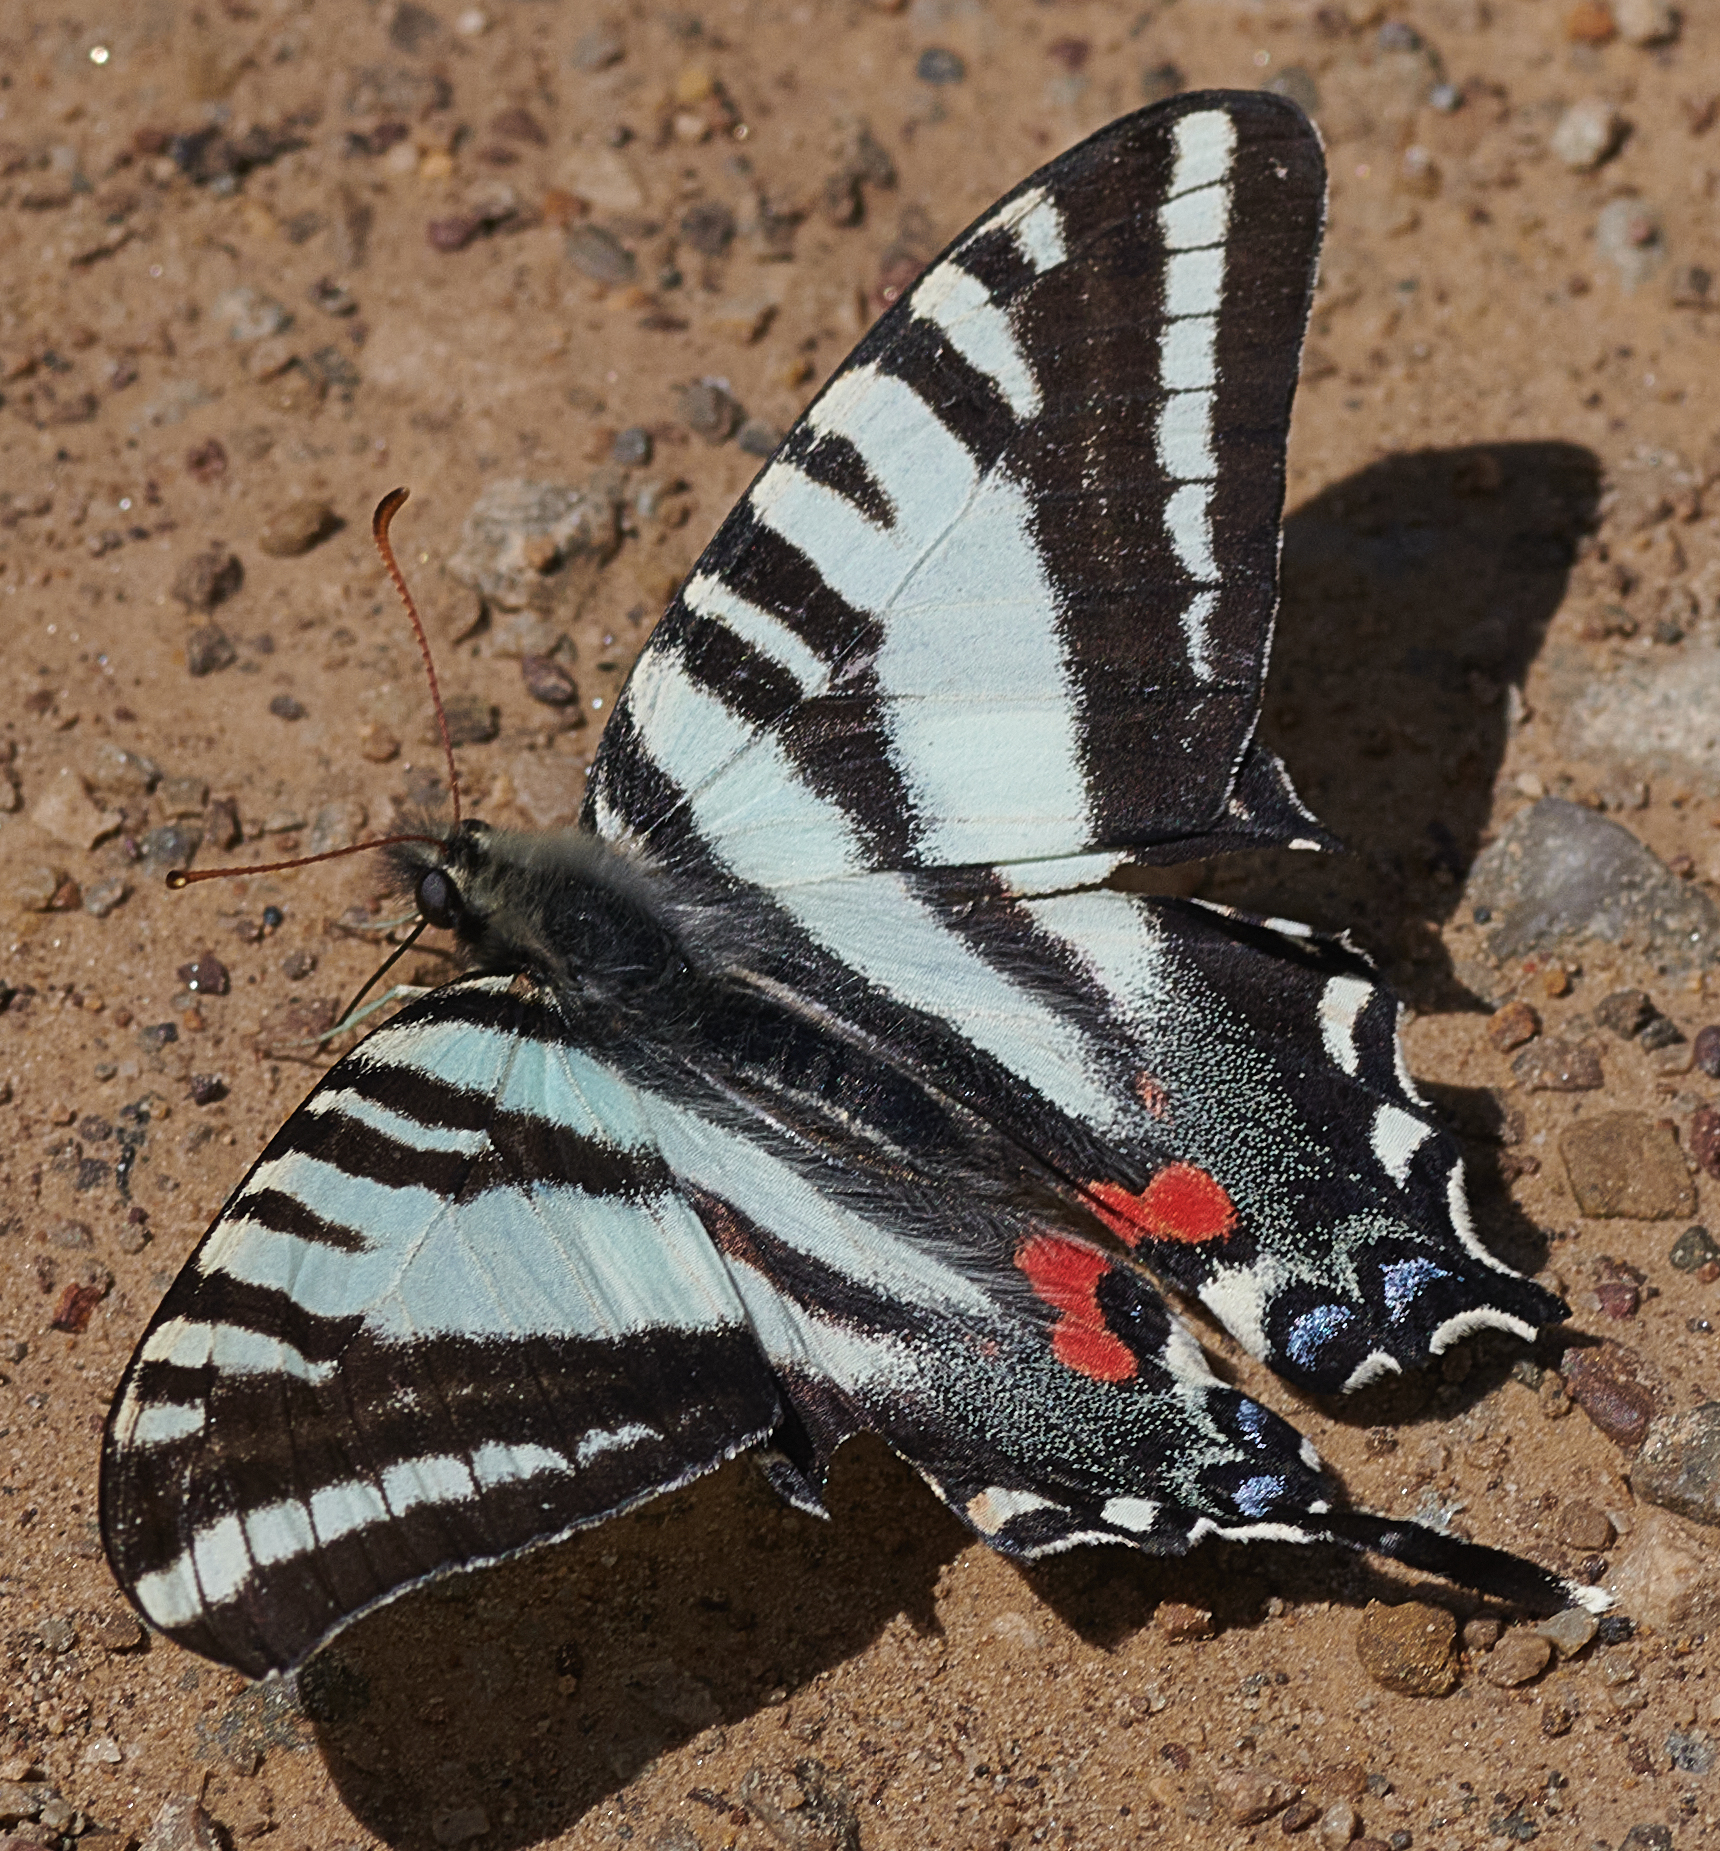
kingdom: Animalia
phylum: Arthropoda
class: Insecta
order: Lepidoptera
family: Papilionidae
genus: Protographium
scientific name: Protographium marcellus
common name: Zebra swallowtail
